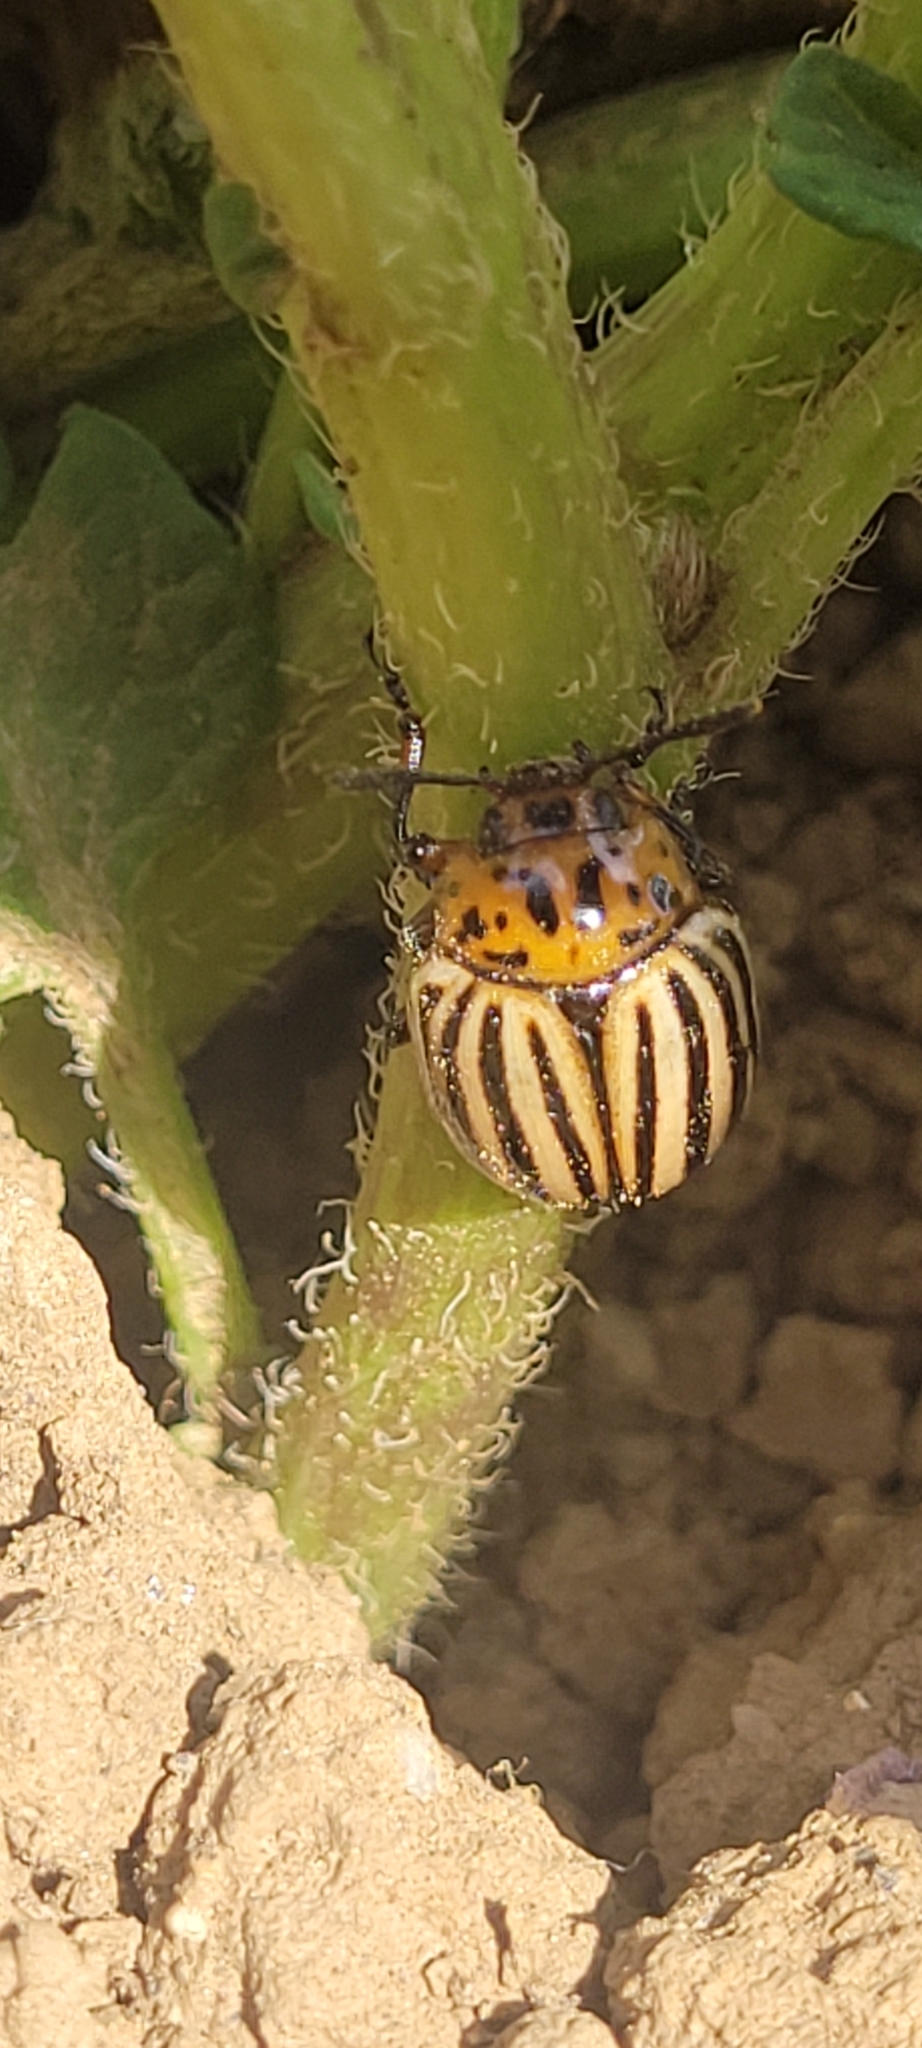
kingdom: Animalia
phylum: Arthropoda
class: Insecta
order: Coleoptera
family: Chrysomelidae
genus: Leptinotarsa
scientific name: Leptinotarsa decemlineata
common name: Colorado potato beetle
